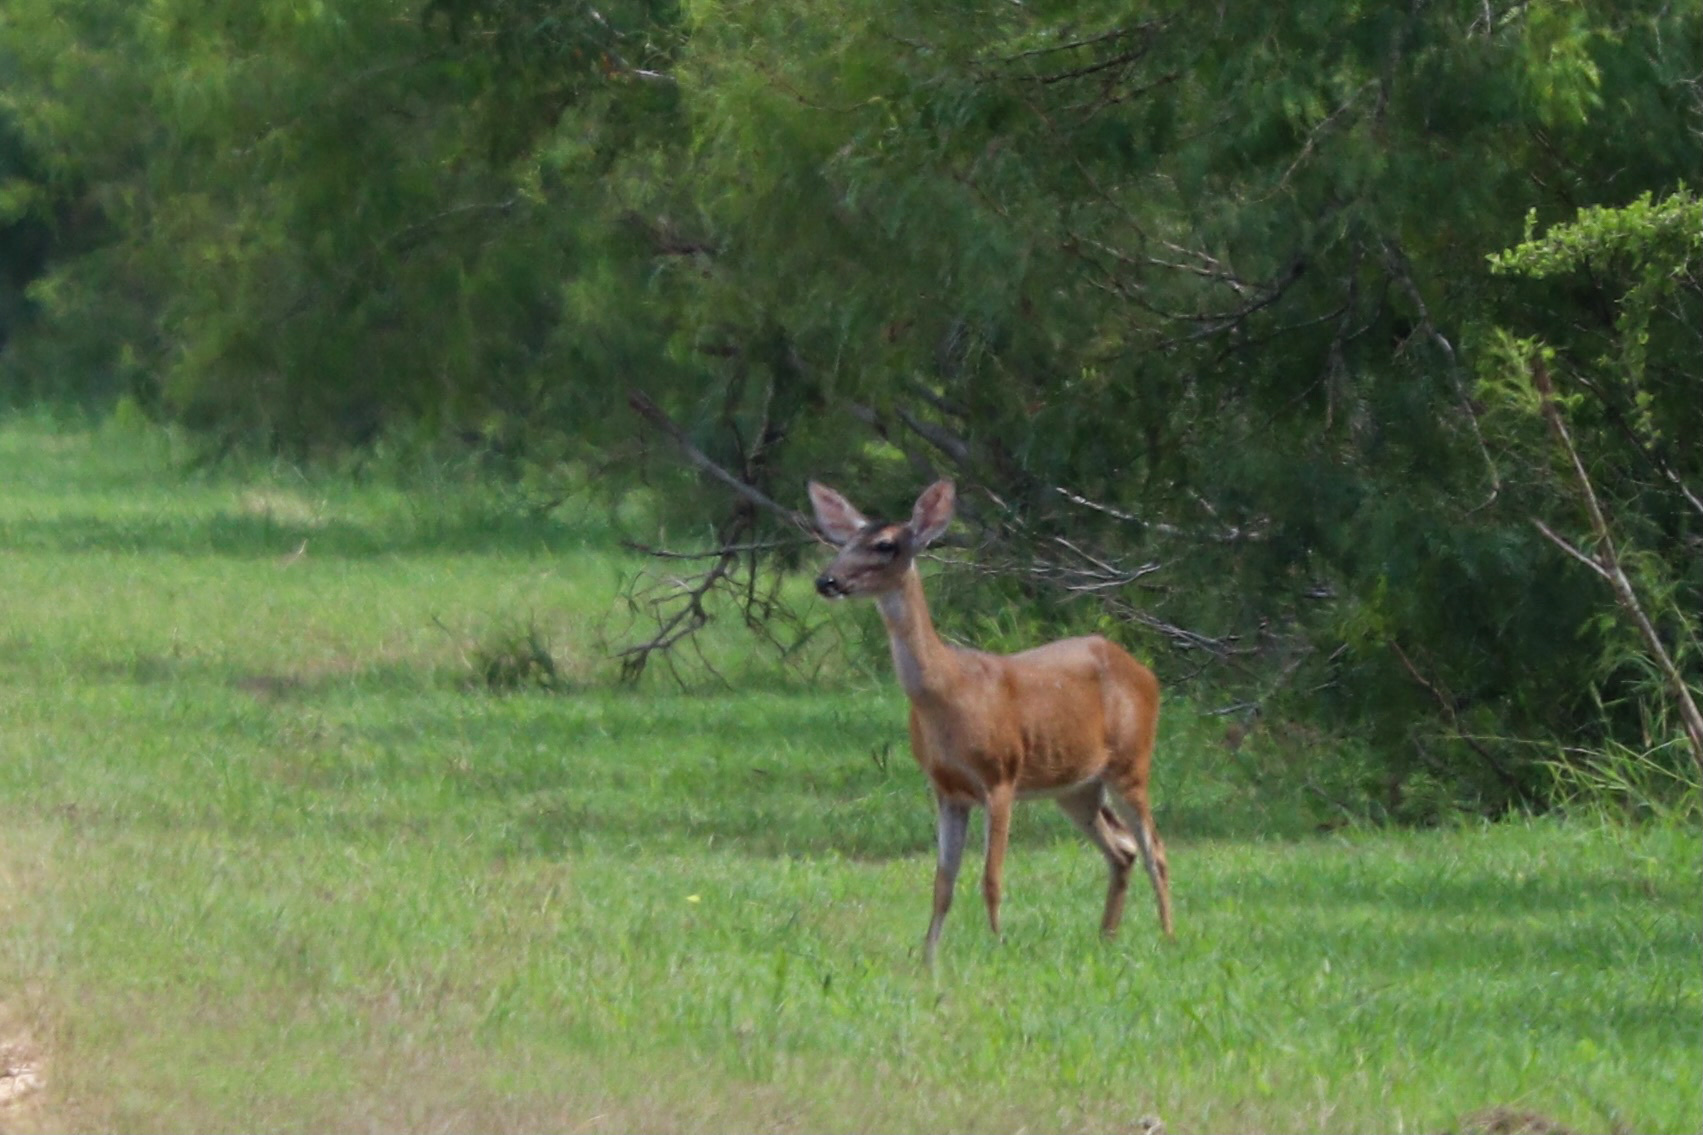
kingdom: Animalia
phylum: Chordata
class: Mammalia
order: Artiodactyla
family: Cervidae
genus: Odocoileus
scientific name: Odocoileus virginianus
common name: White-tailed deer
